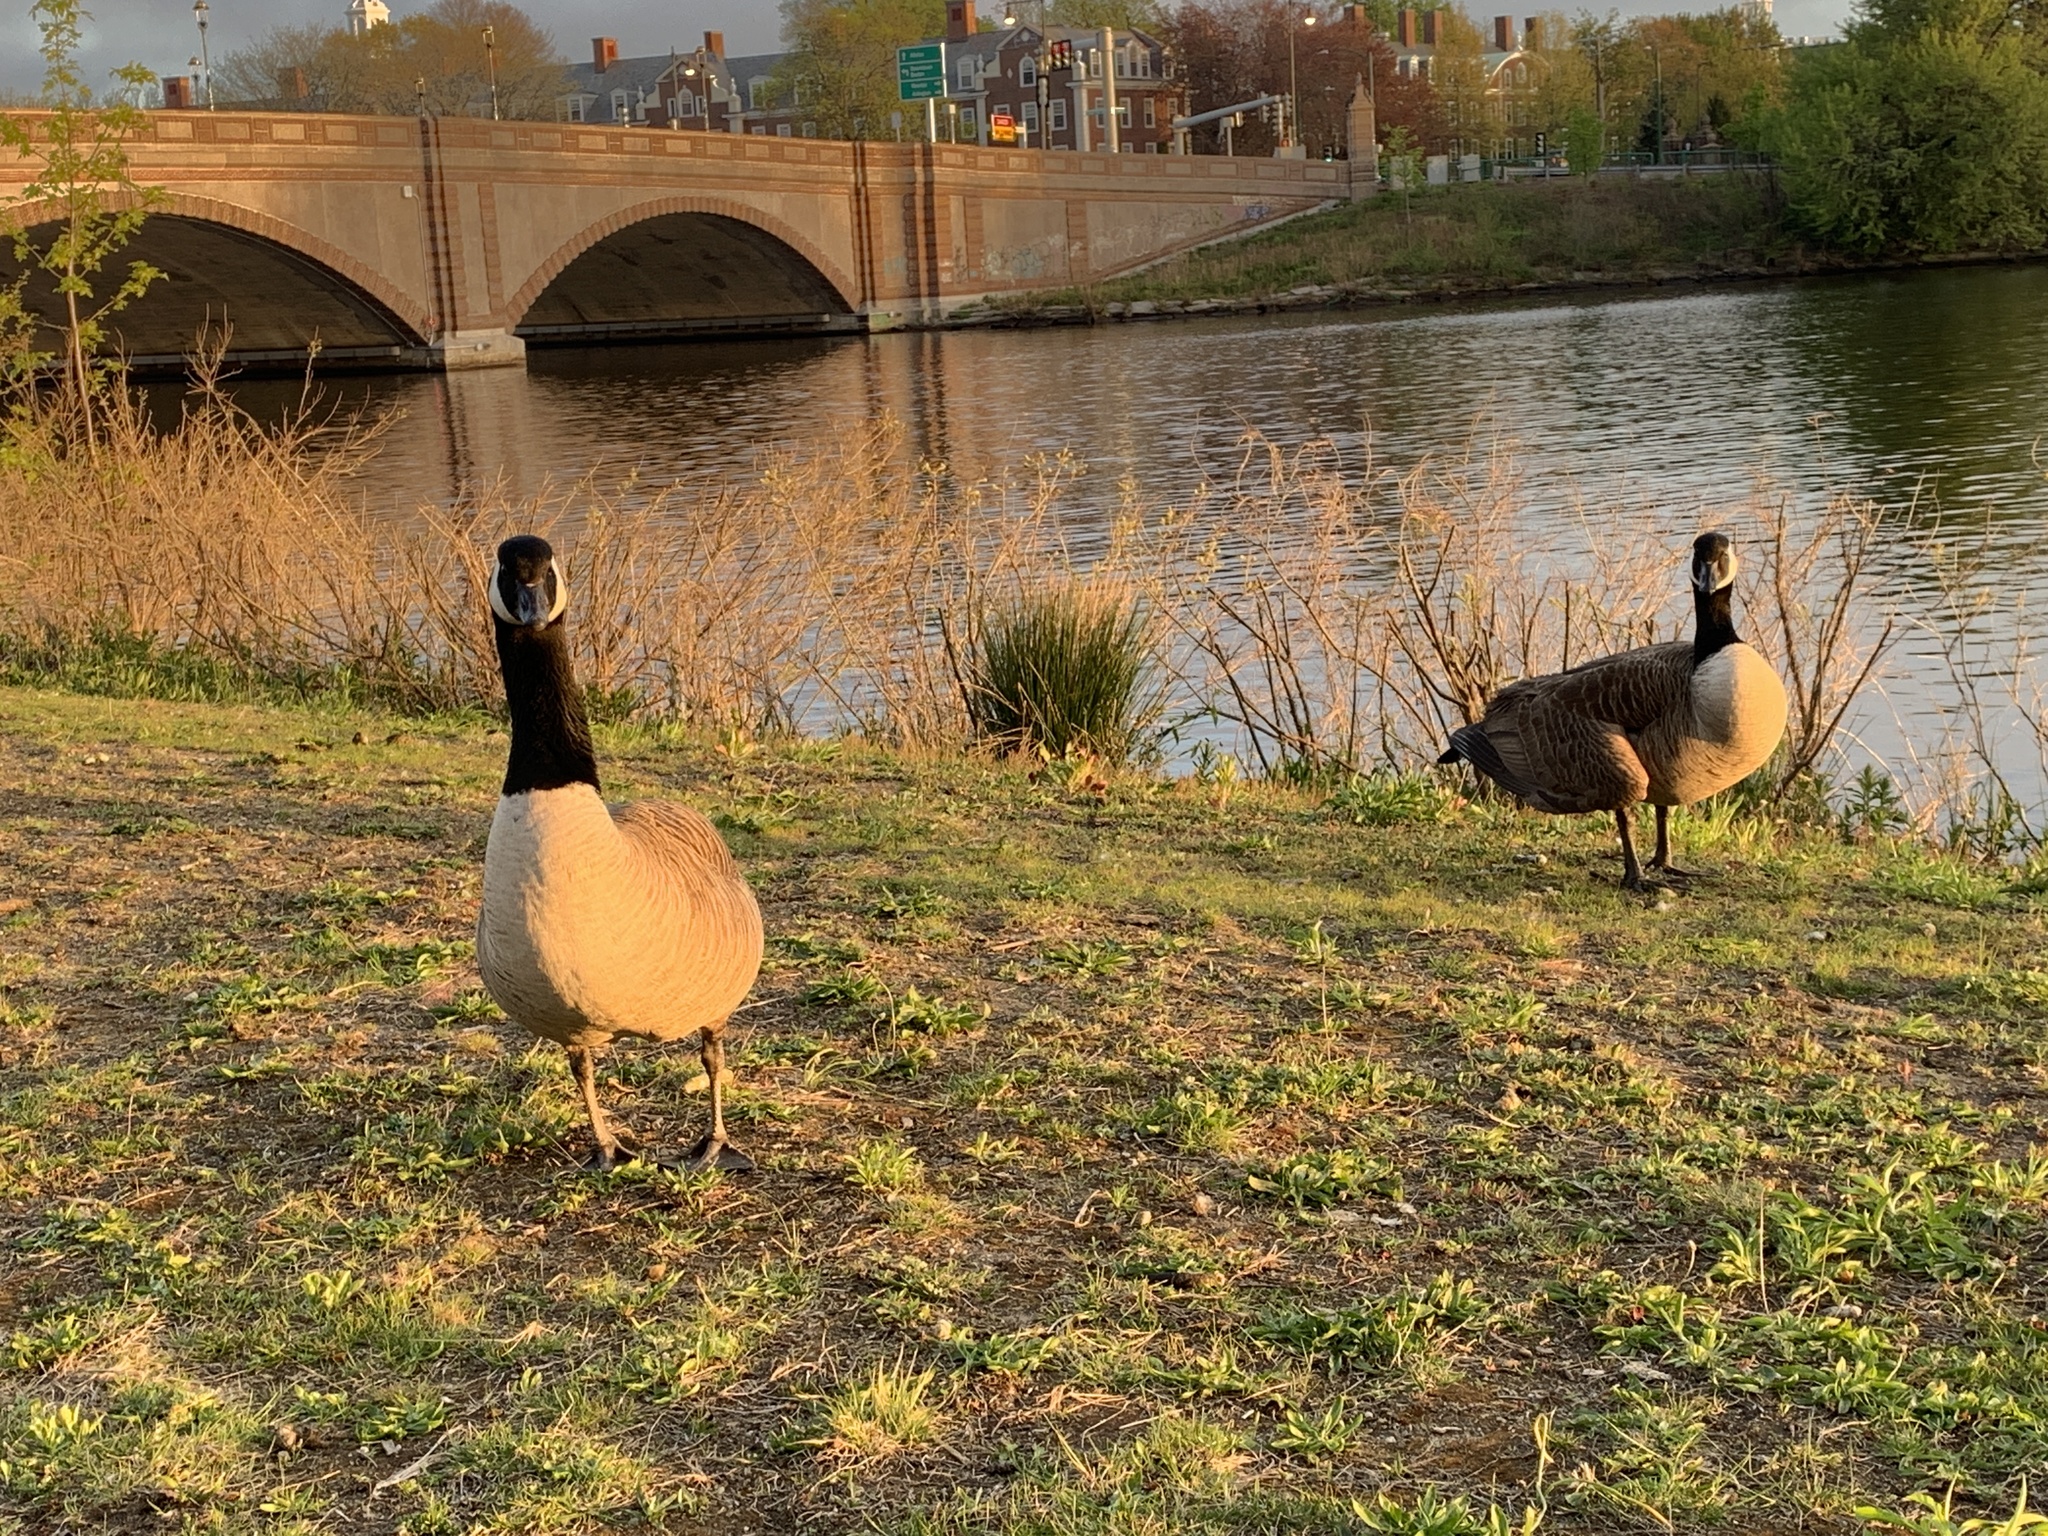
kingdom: Animalia
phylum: Chordata
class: Aves
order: Anseriformes
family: Anatidae
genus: Branta
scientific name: Branta canadensis
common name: Canada goose
